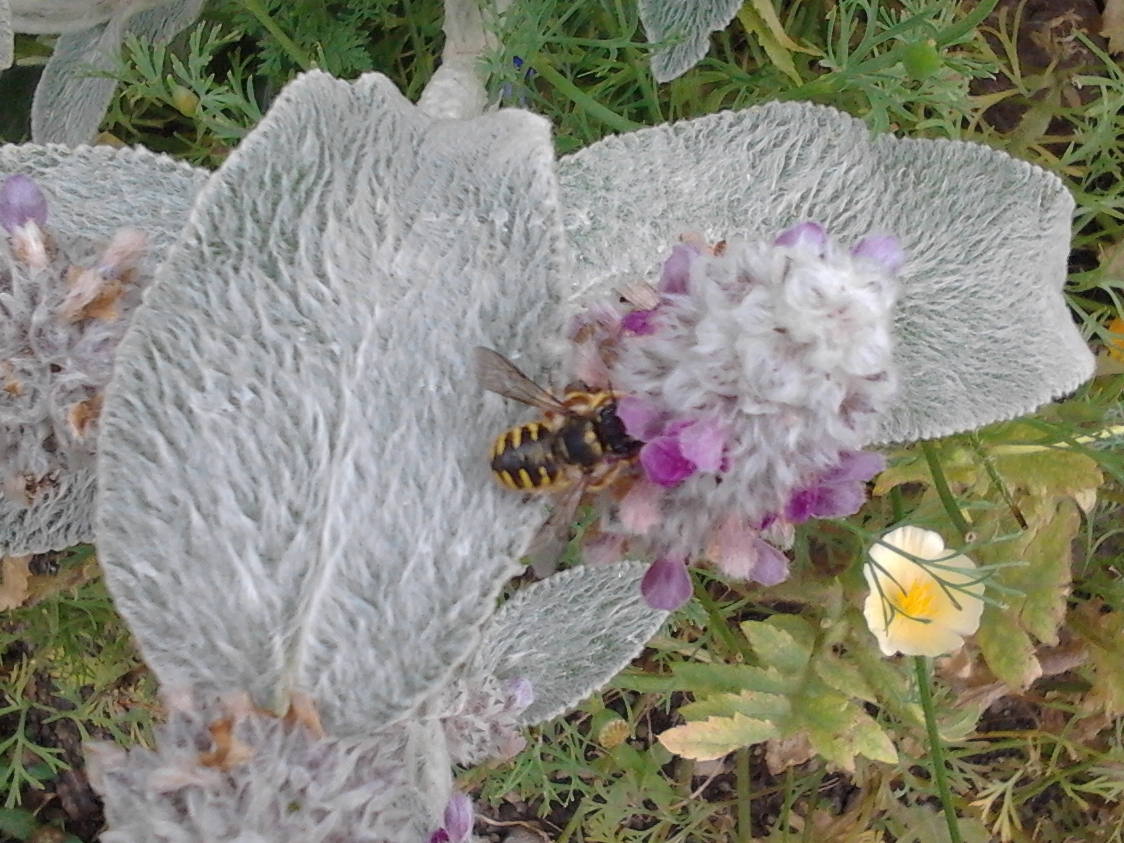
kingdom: Animalia
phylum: Arthropoda
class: Insecta
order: Hymenoptera
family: Megachilidae
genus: Anthidium
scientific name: Anthidium manicatum
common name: Wool carder bee
